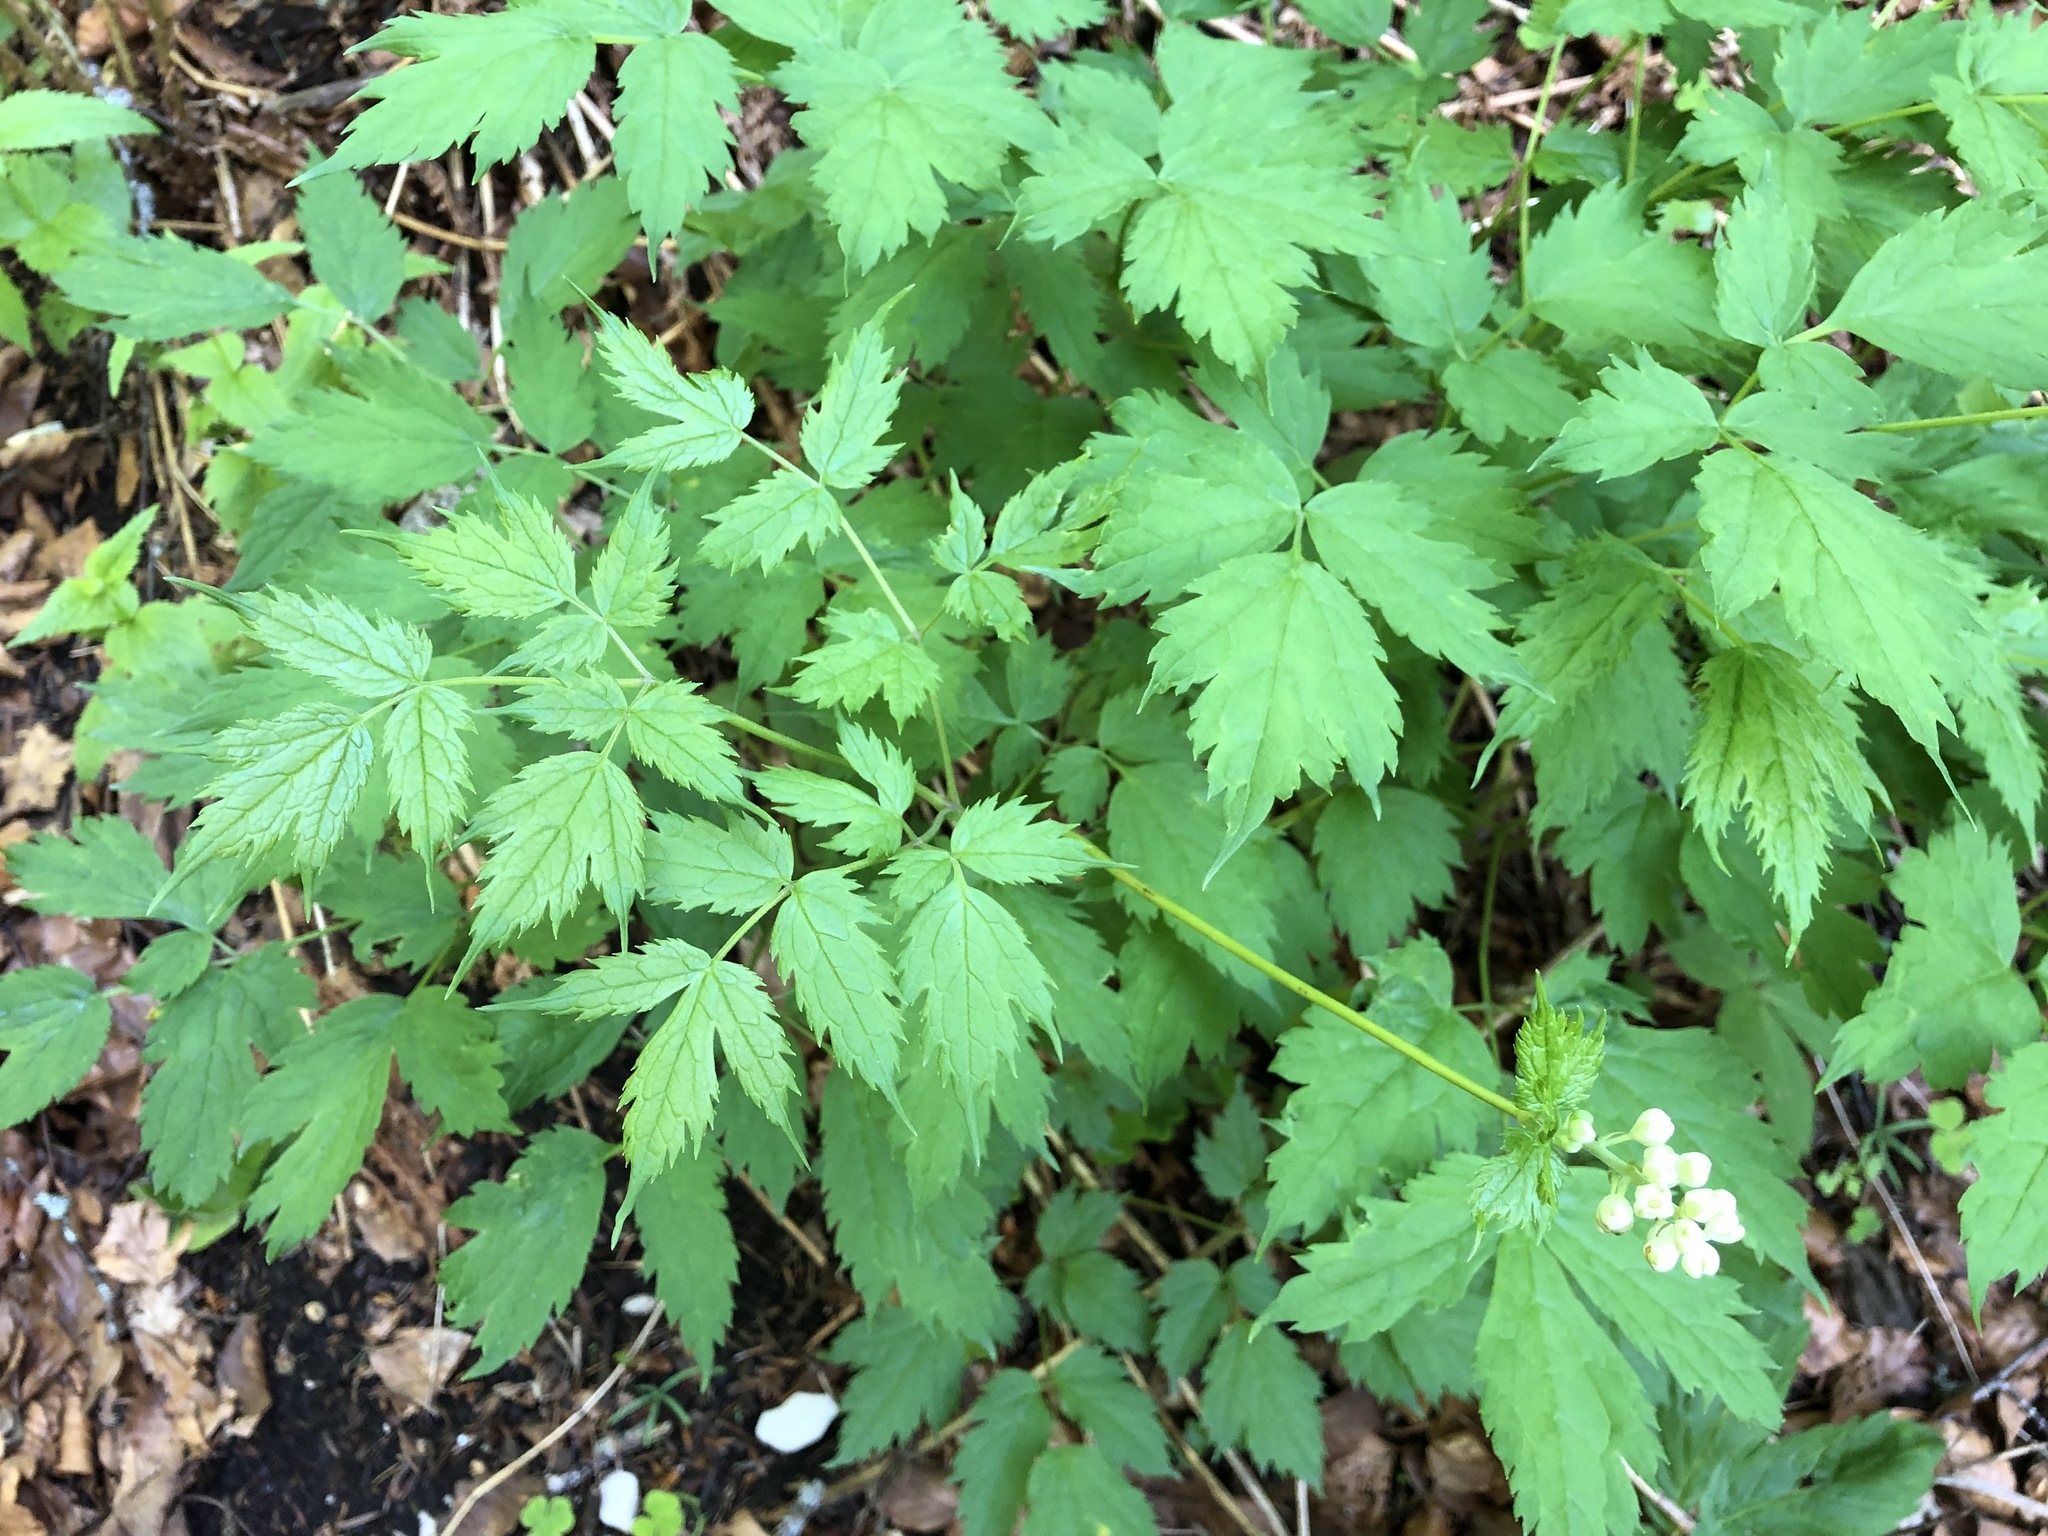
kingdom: Plantae
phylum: Tracheophyta
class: Magnoliopsida
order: Ranunculales
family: Ranunculaceae
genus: Actaea
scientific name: Actaea spicata
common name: Baneberry
